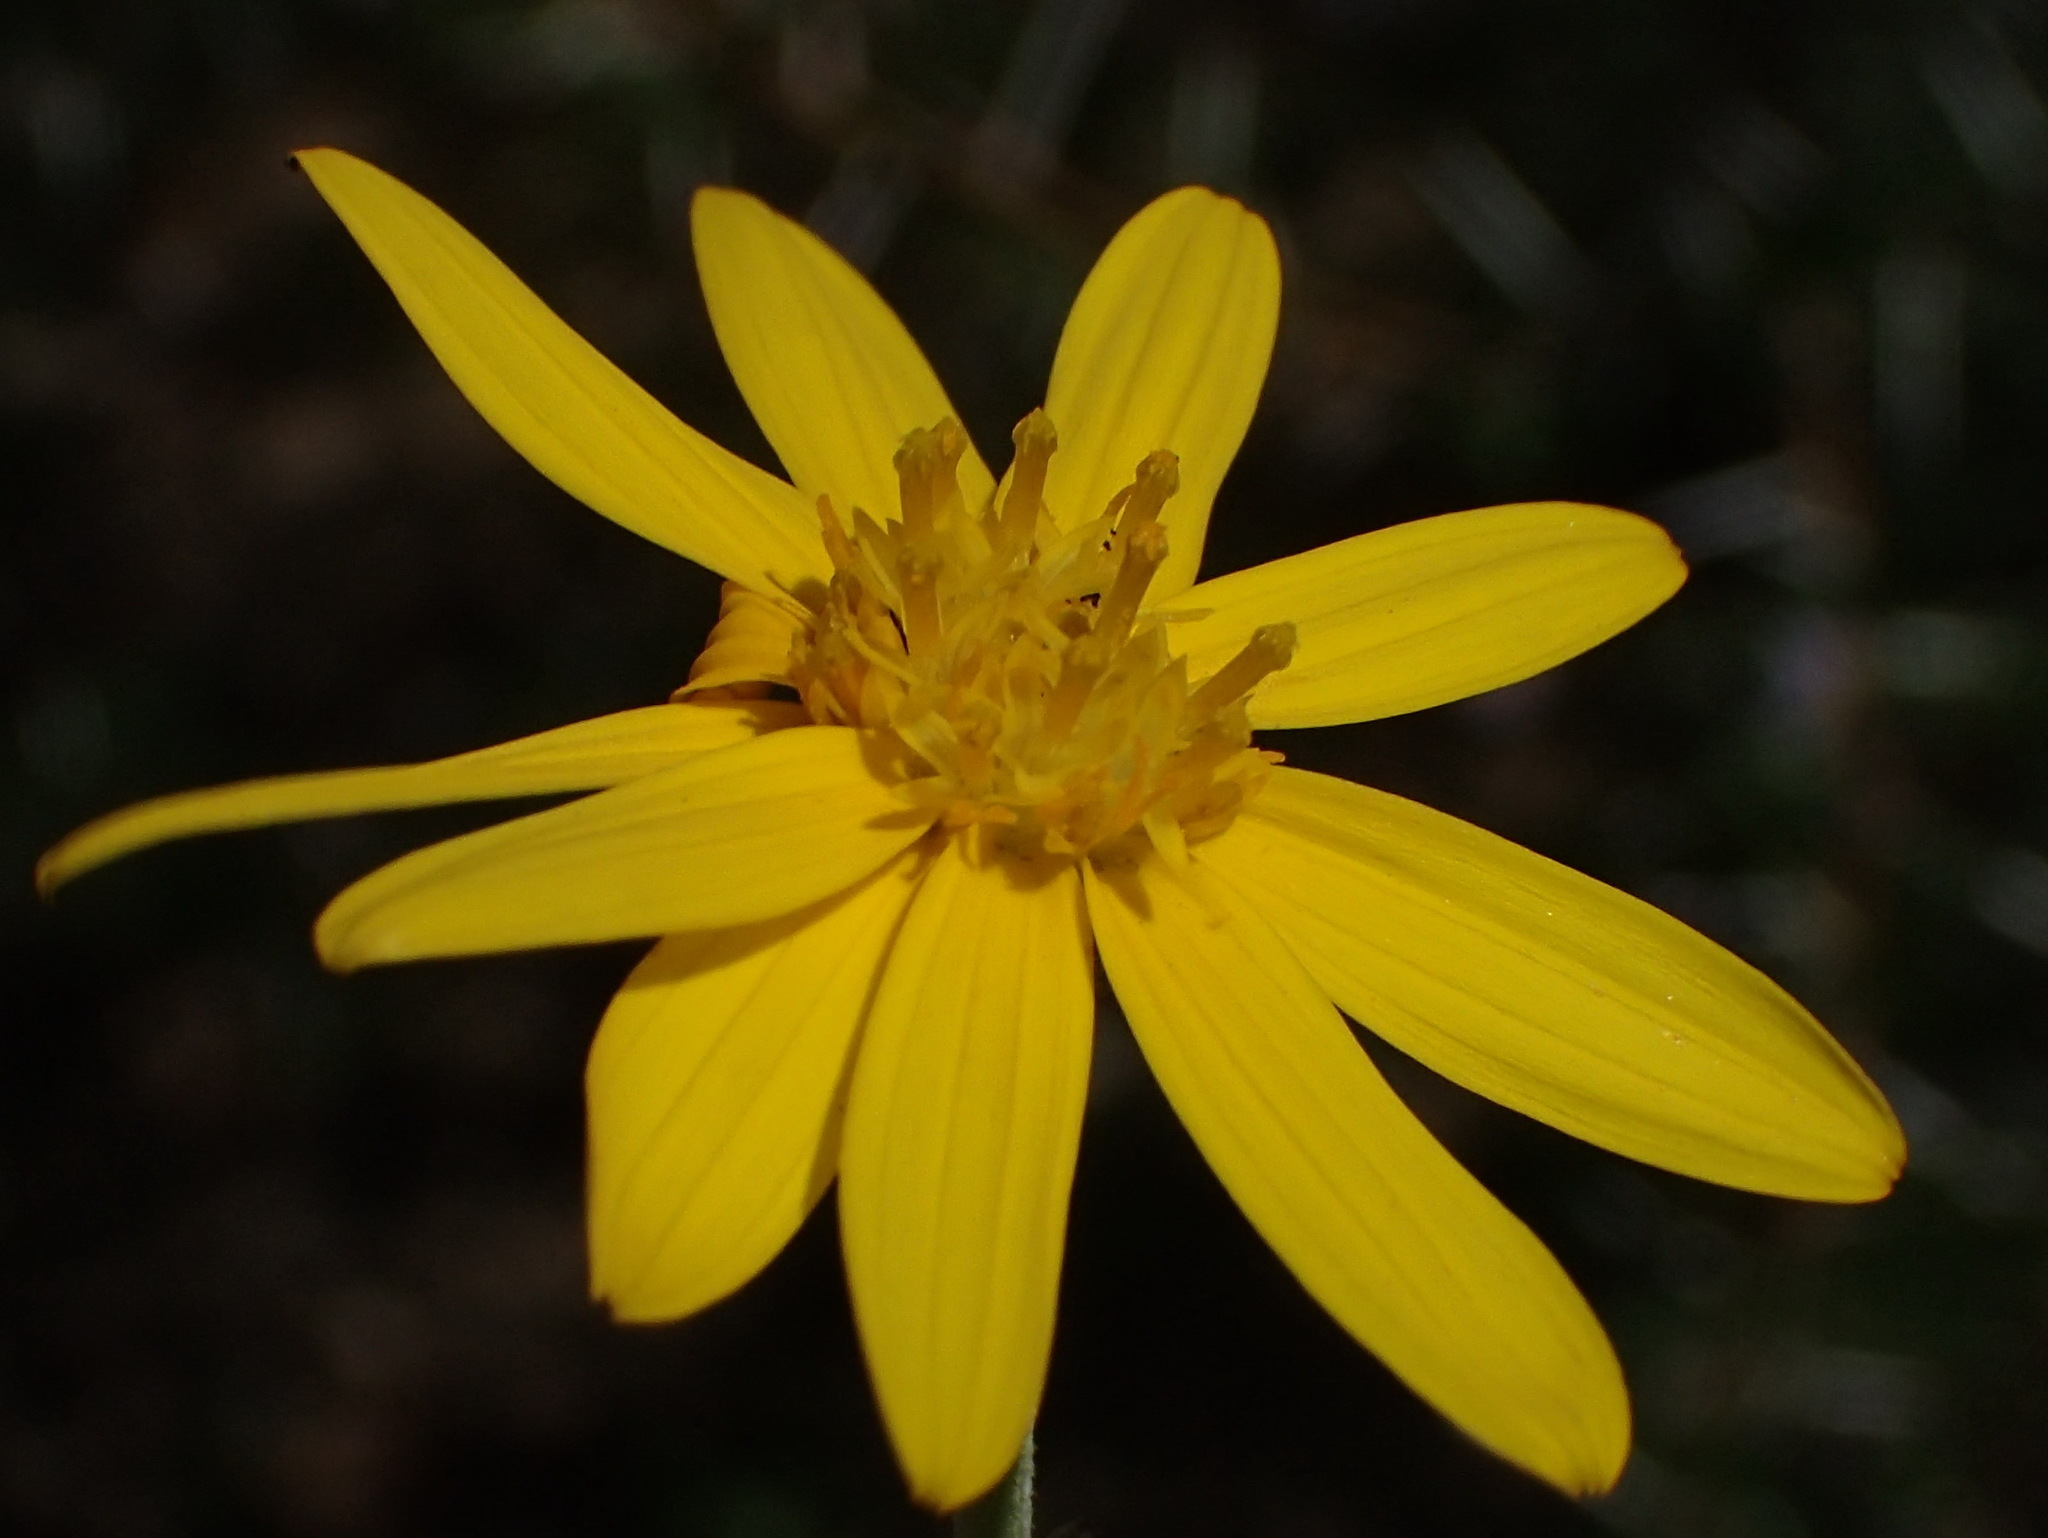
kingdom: Plantae
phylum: Tracheophyta
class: Magnoliopsida
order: Asterales
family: Asteraceae
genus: Osteospermum
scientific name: Osteospermum sinuatum
